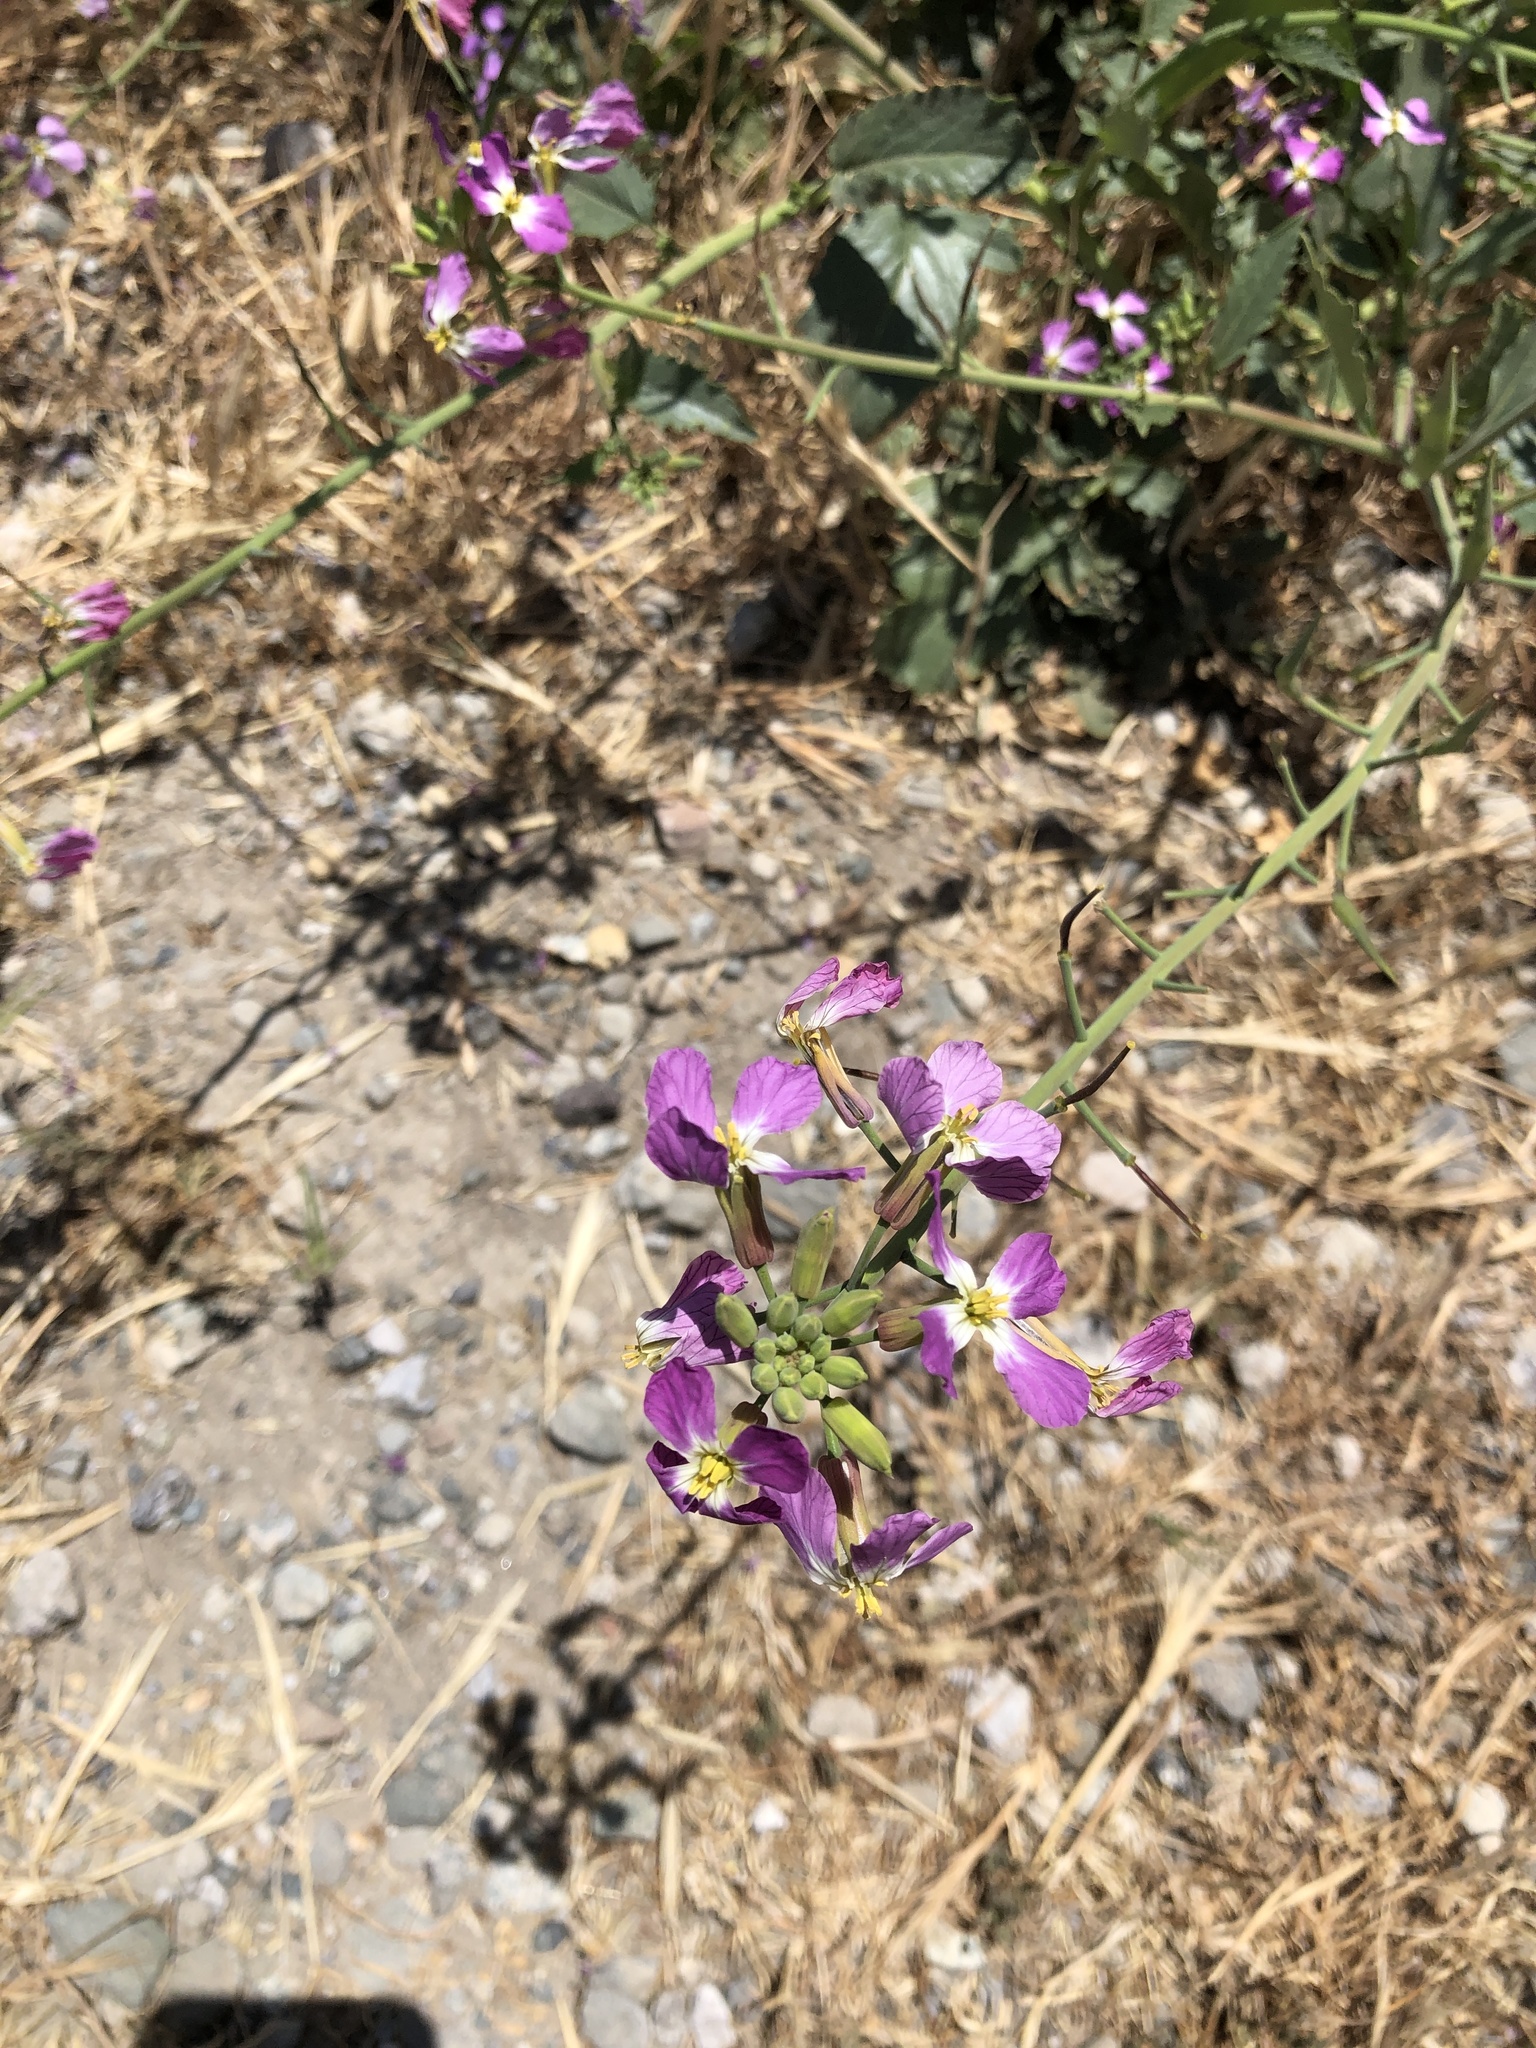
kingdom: Plantae
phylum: Tracheophyta
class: Magnoliopsida
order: Brassicales
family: Brassicaceae
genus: Raphanus
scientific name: Raphanus sativus
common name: Cultivated radish
